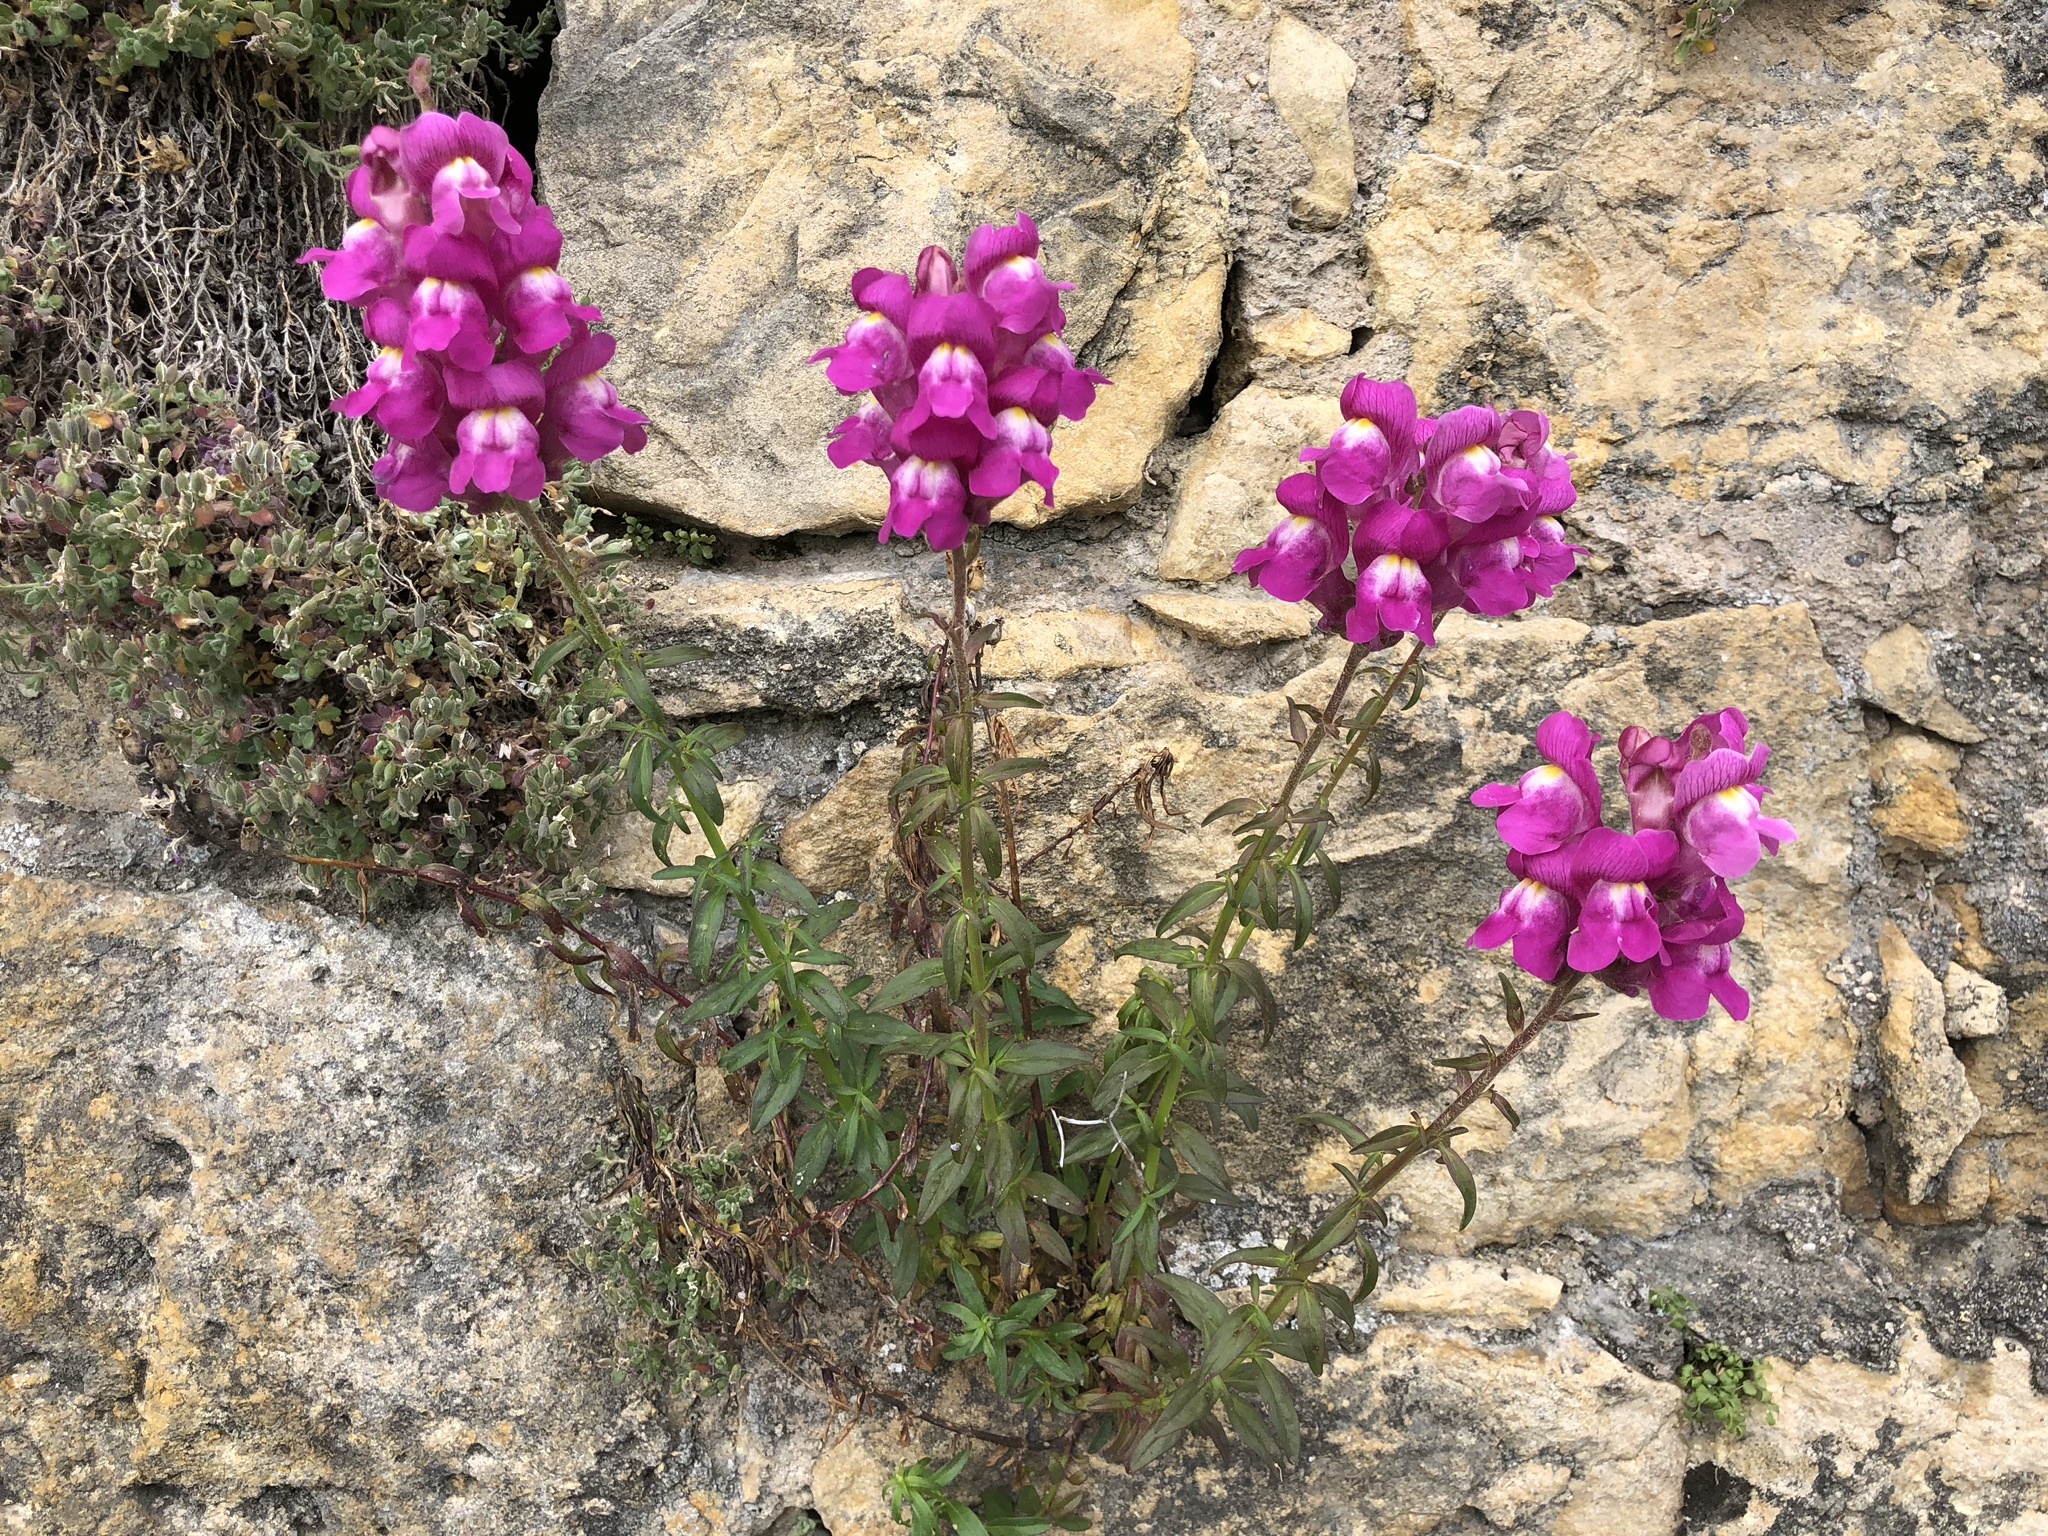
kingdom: Plantae
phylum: Tracheophyta
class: Magnoliopsida
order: Lamiales
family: Plantaginaceae
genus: Antirrhinum
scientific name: Antirrhinum majus
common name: Snapdragon
